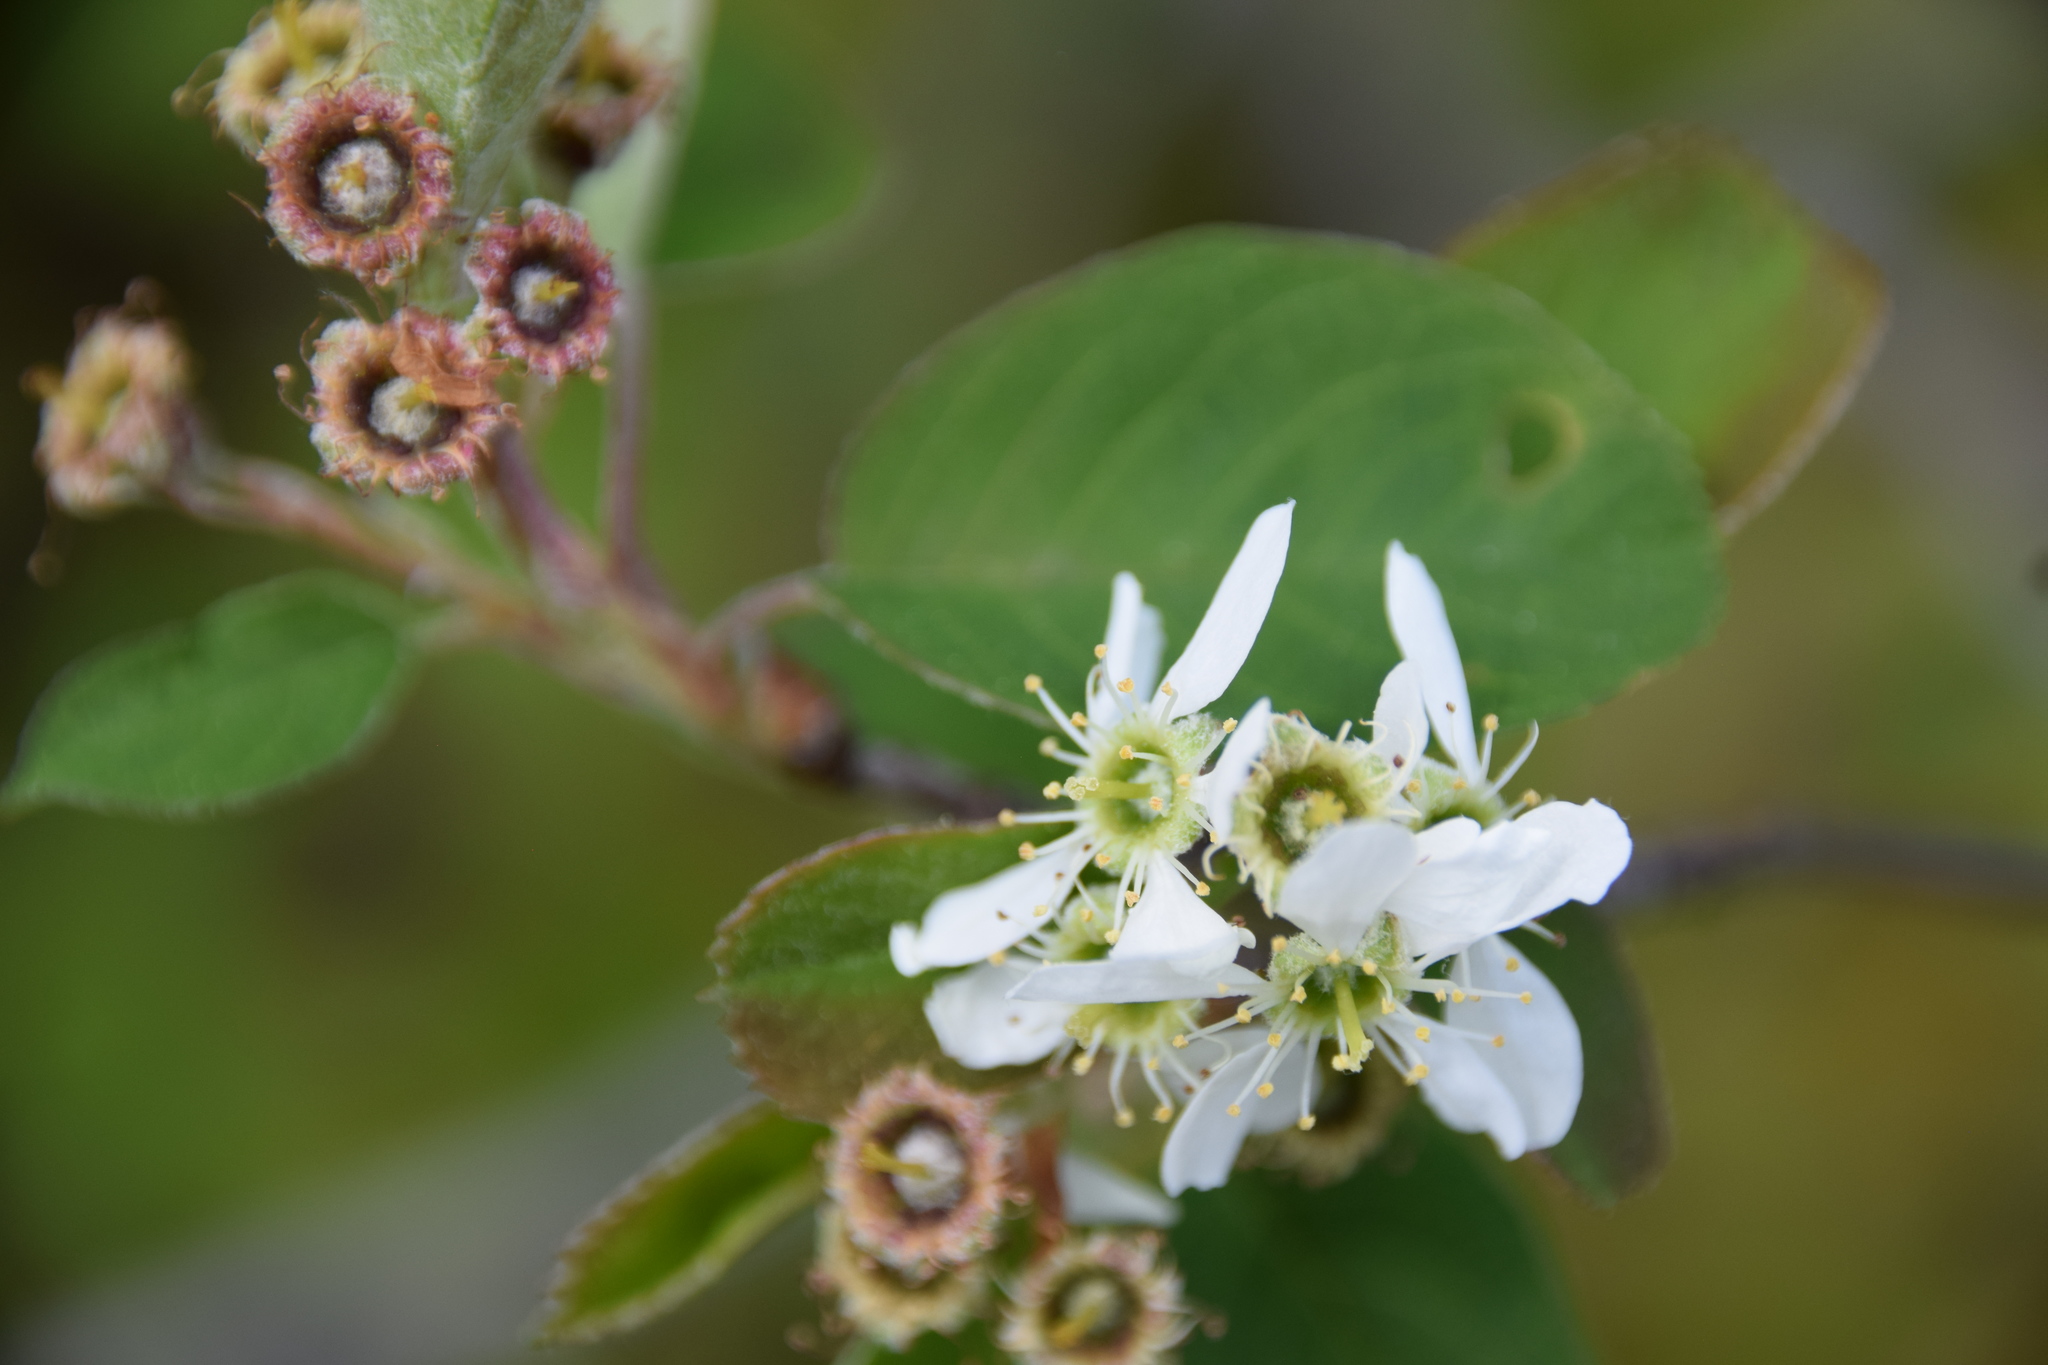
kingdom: Plantae
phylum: Tracheophyta
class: Magnoliopsida
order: Rosales
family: Rosaceae
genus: Amelanchier
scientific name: Amelanchier humilis
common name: Low juneberry
